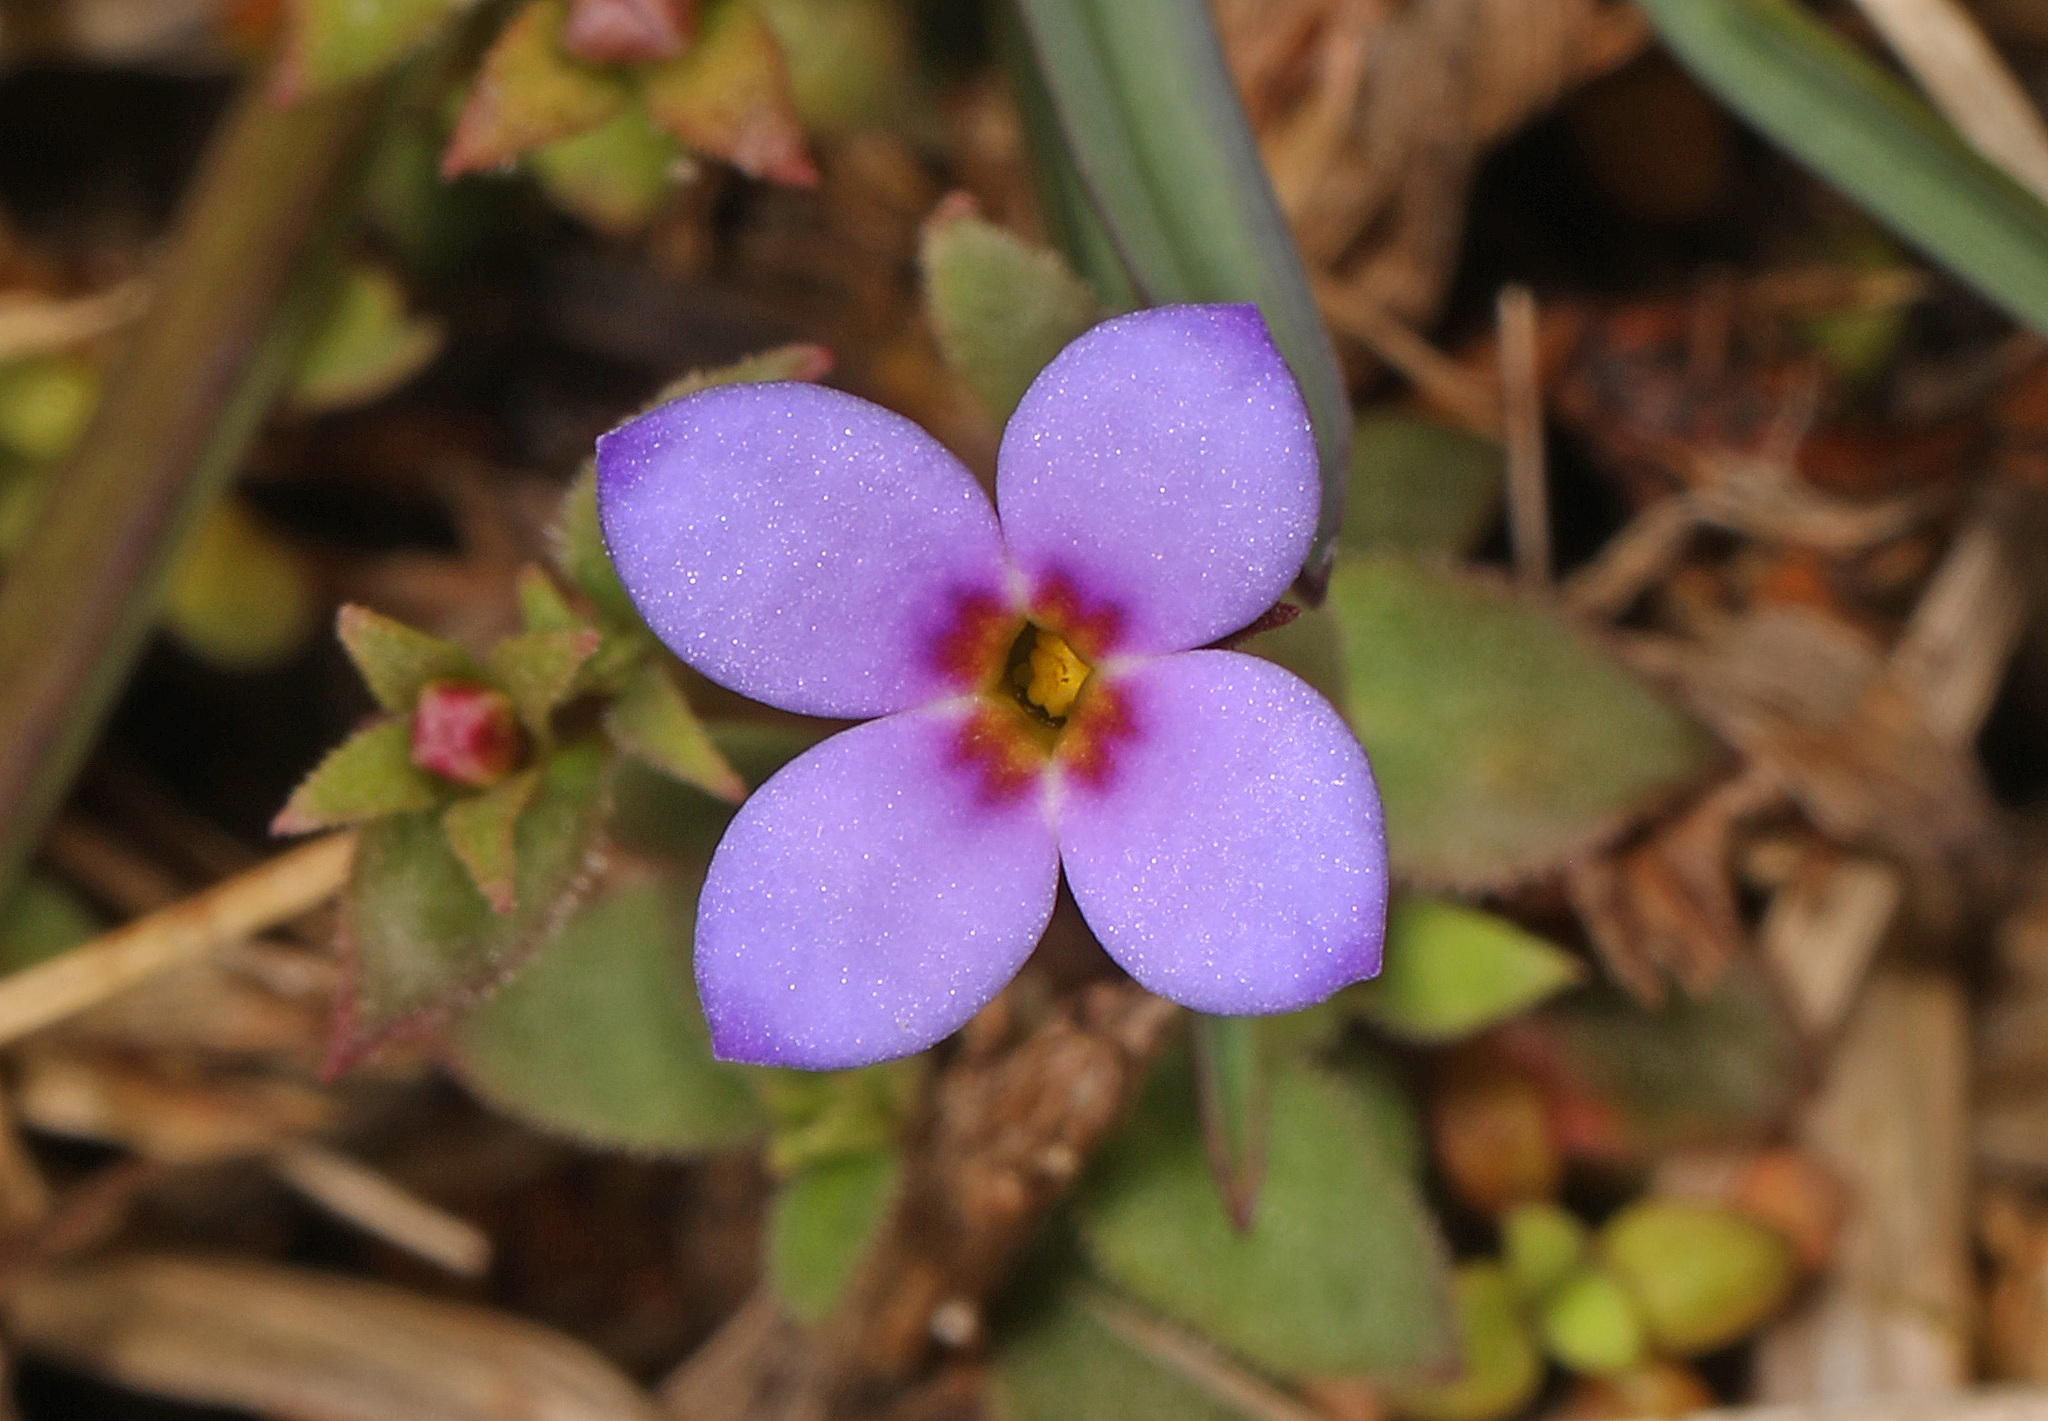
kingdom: Plantae
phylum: Tracheophyta
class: Magnoliopsida
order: Gentianales
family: Rubiaceae
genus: Houstonia
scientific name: Houstonia pusilla
